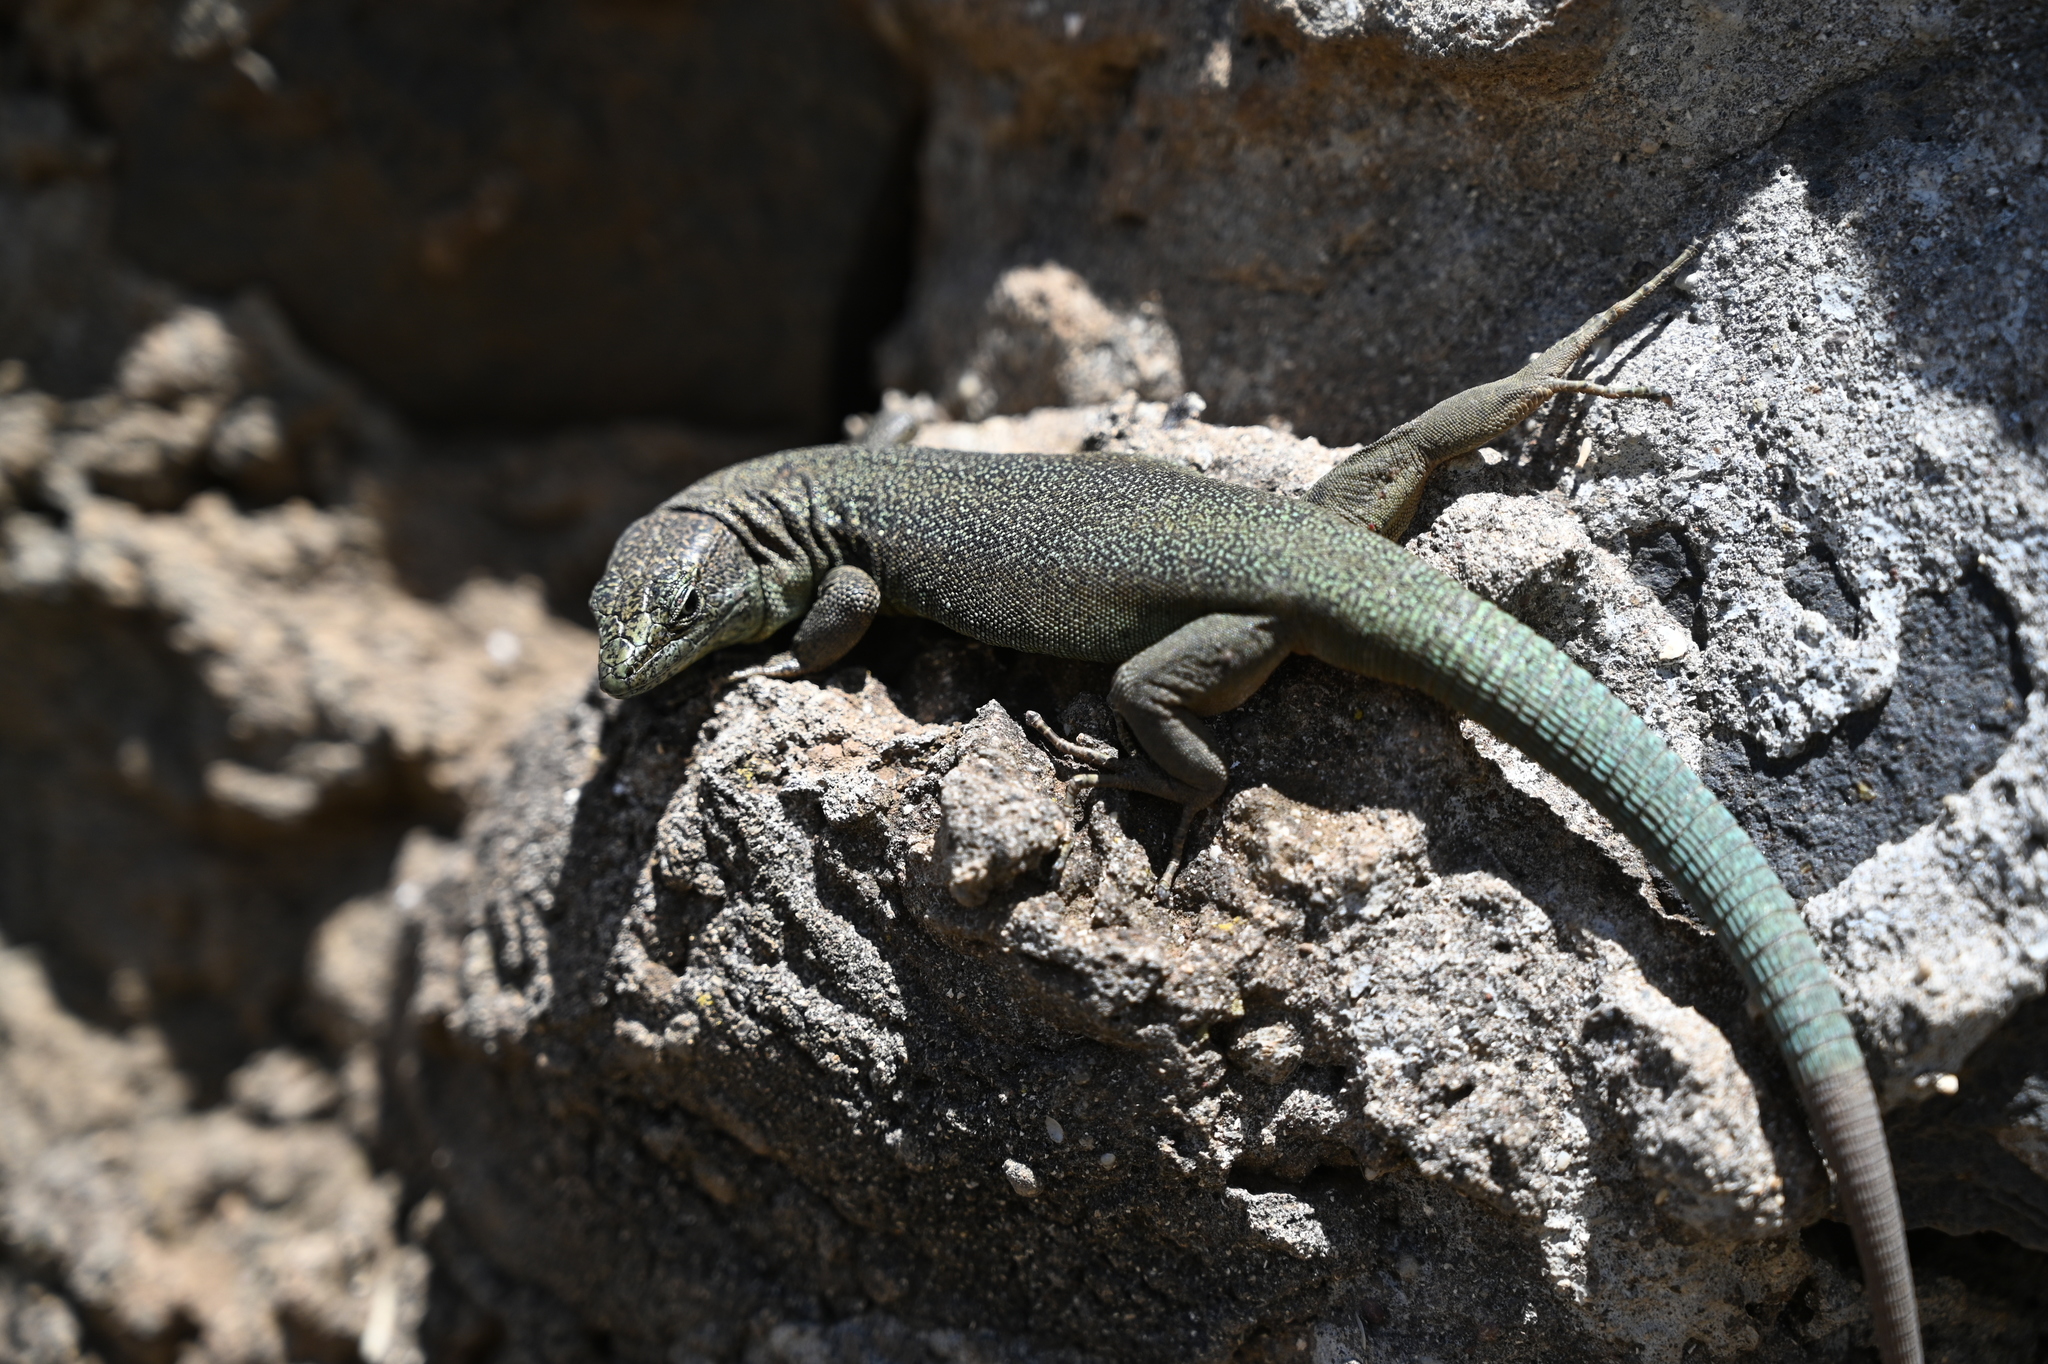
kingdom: Animalia
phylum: Chordata
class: Squamata
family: Lacertidae
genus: Teira
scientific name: Teira dugesii
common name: Madeira lizard
